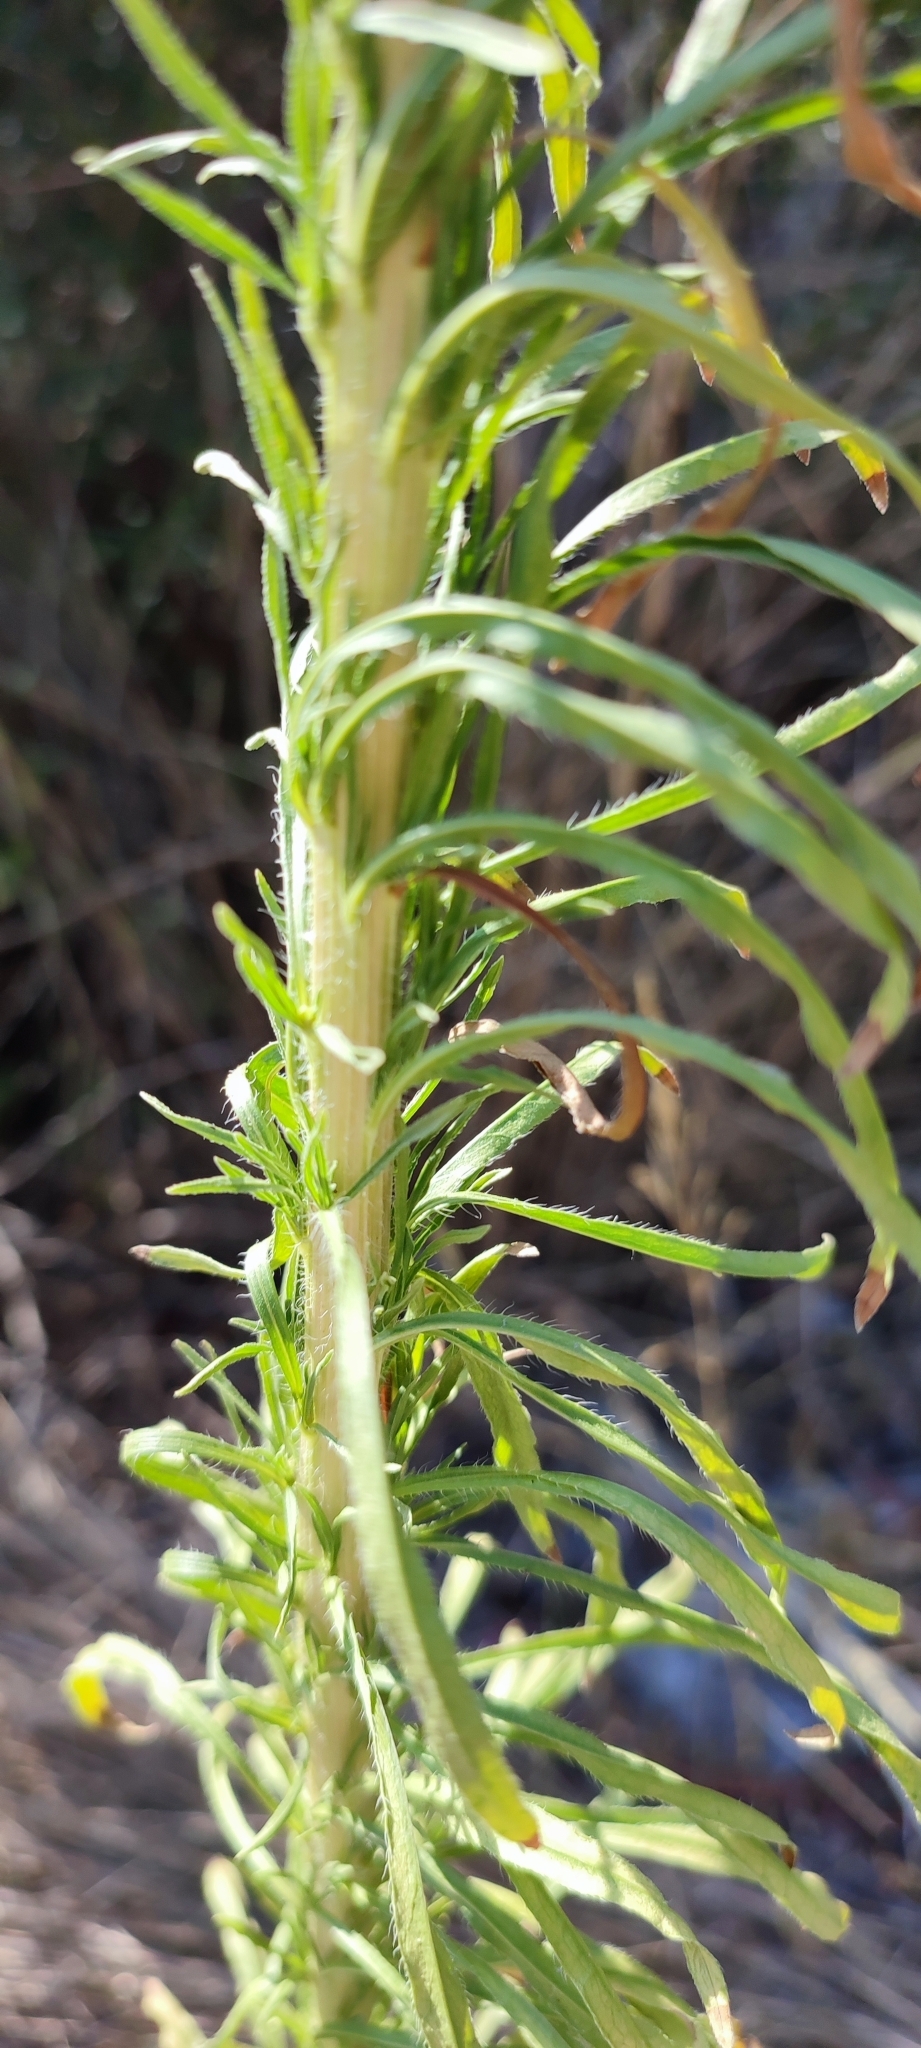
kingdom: Plantae
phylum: Tracheophyta
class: Magnoliopsida
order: Asterales
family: Asteraceae
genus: Erigeron
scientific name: Erigeron sumatrensis
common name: Daisy
